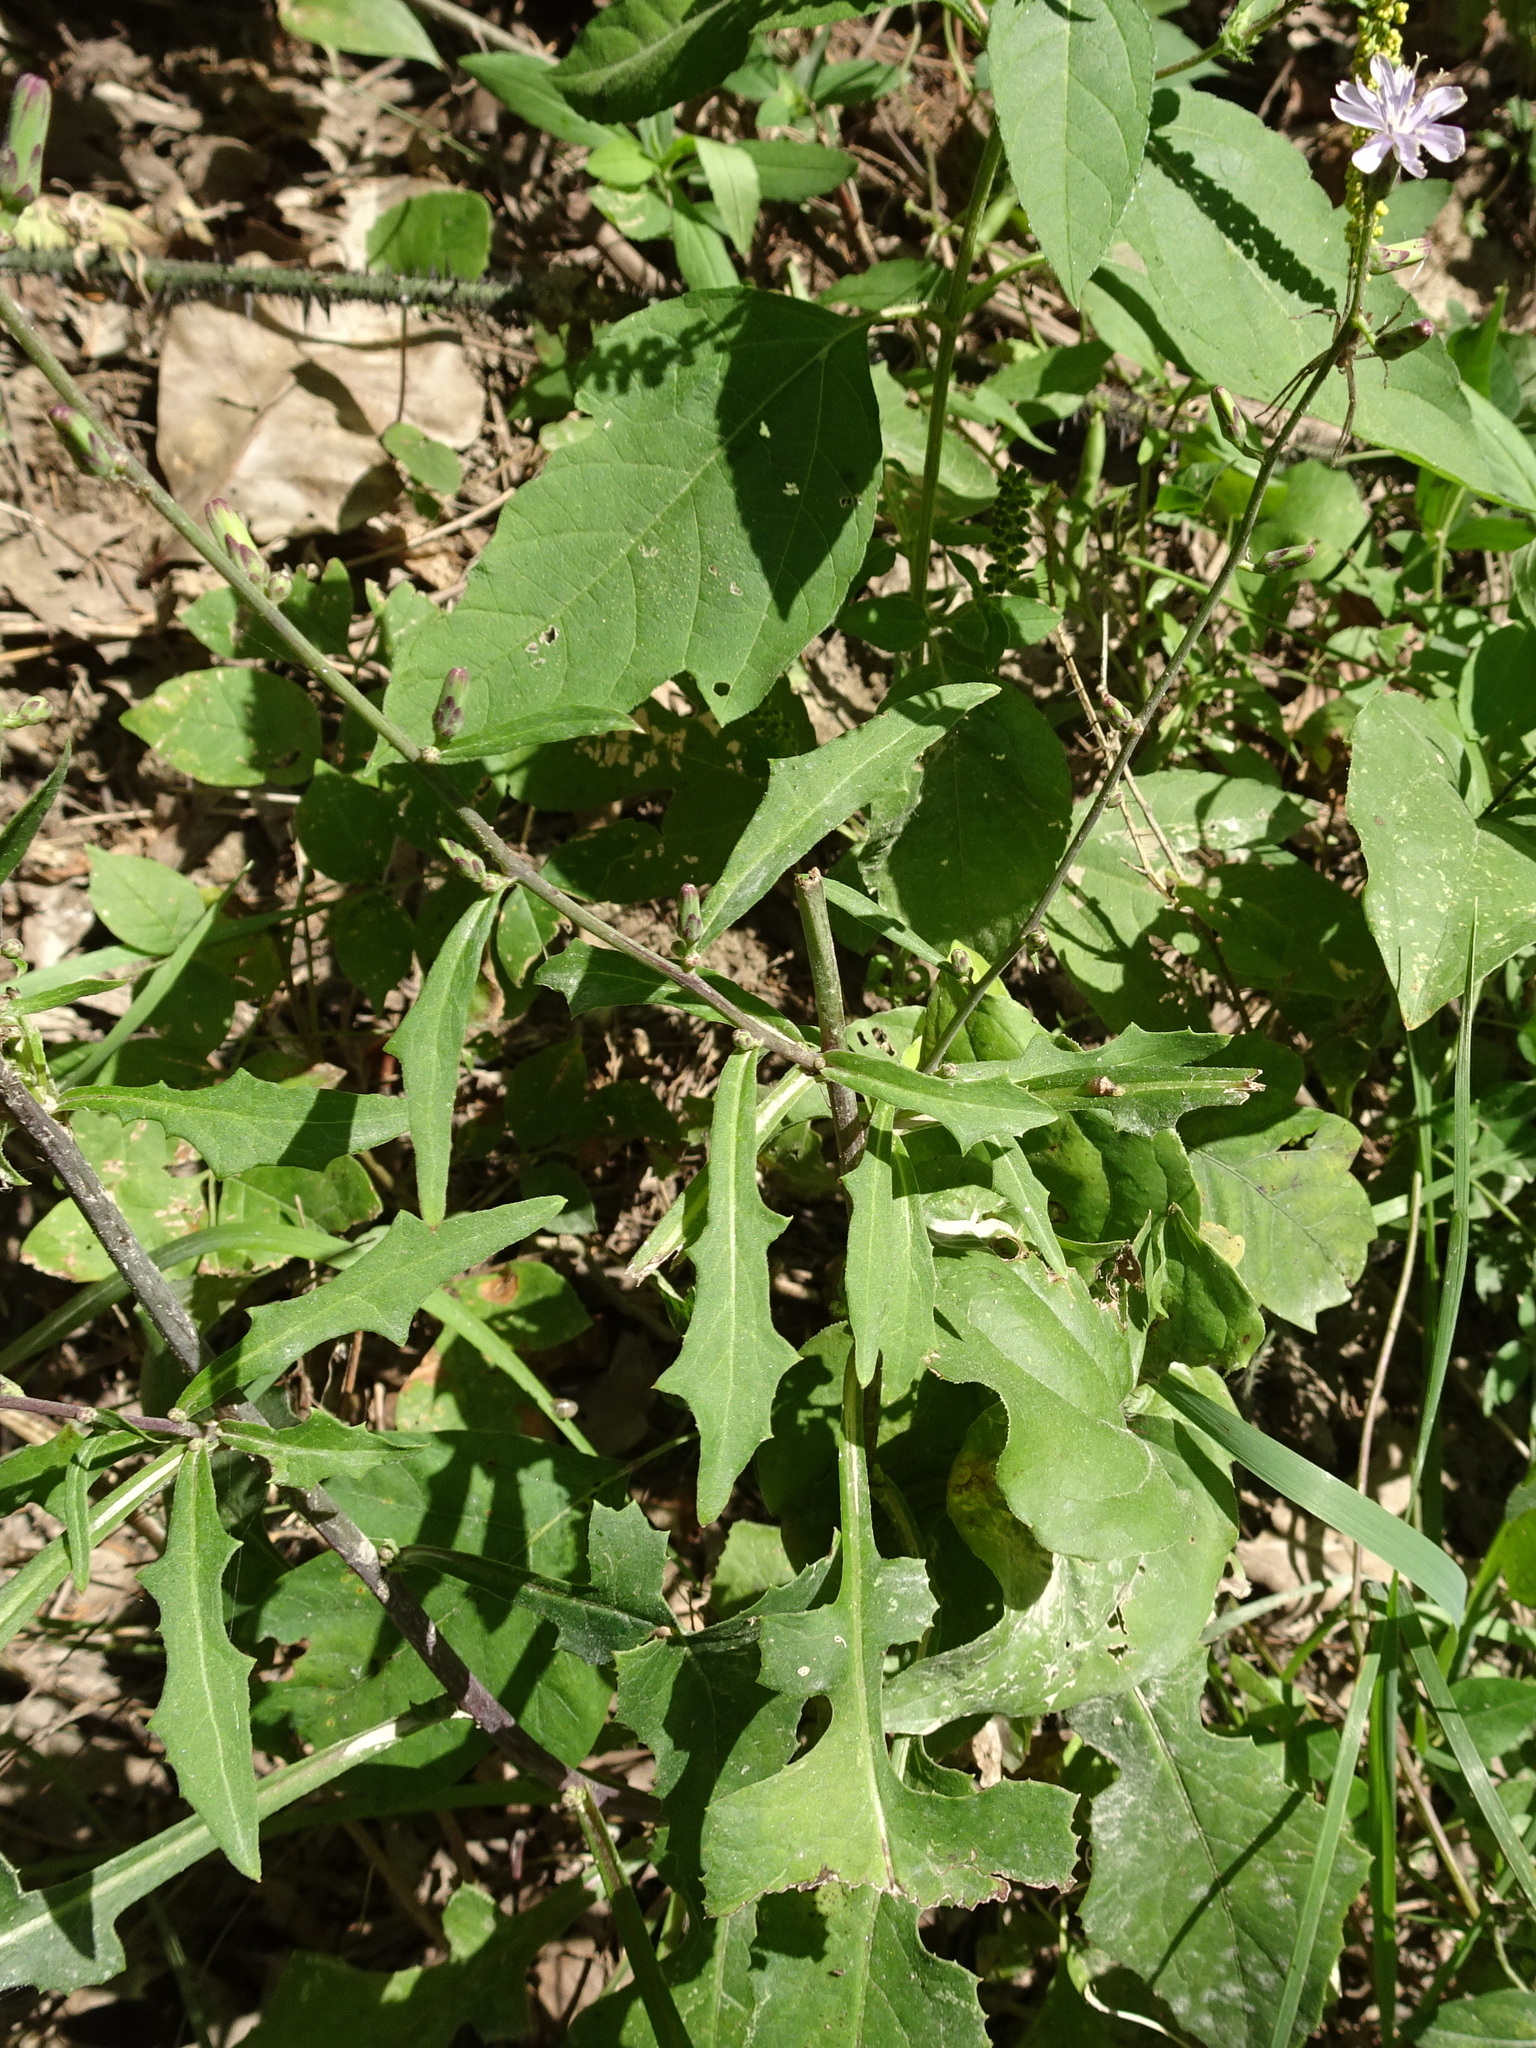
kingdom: Plantae
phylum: Tracheophyta
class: Magnoliopsida
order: Asterales
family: Asteraceae
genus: Lactuca
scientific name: Lactuca floridana
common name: Woodland lettuce
